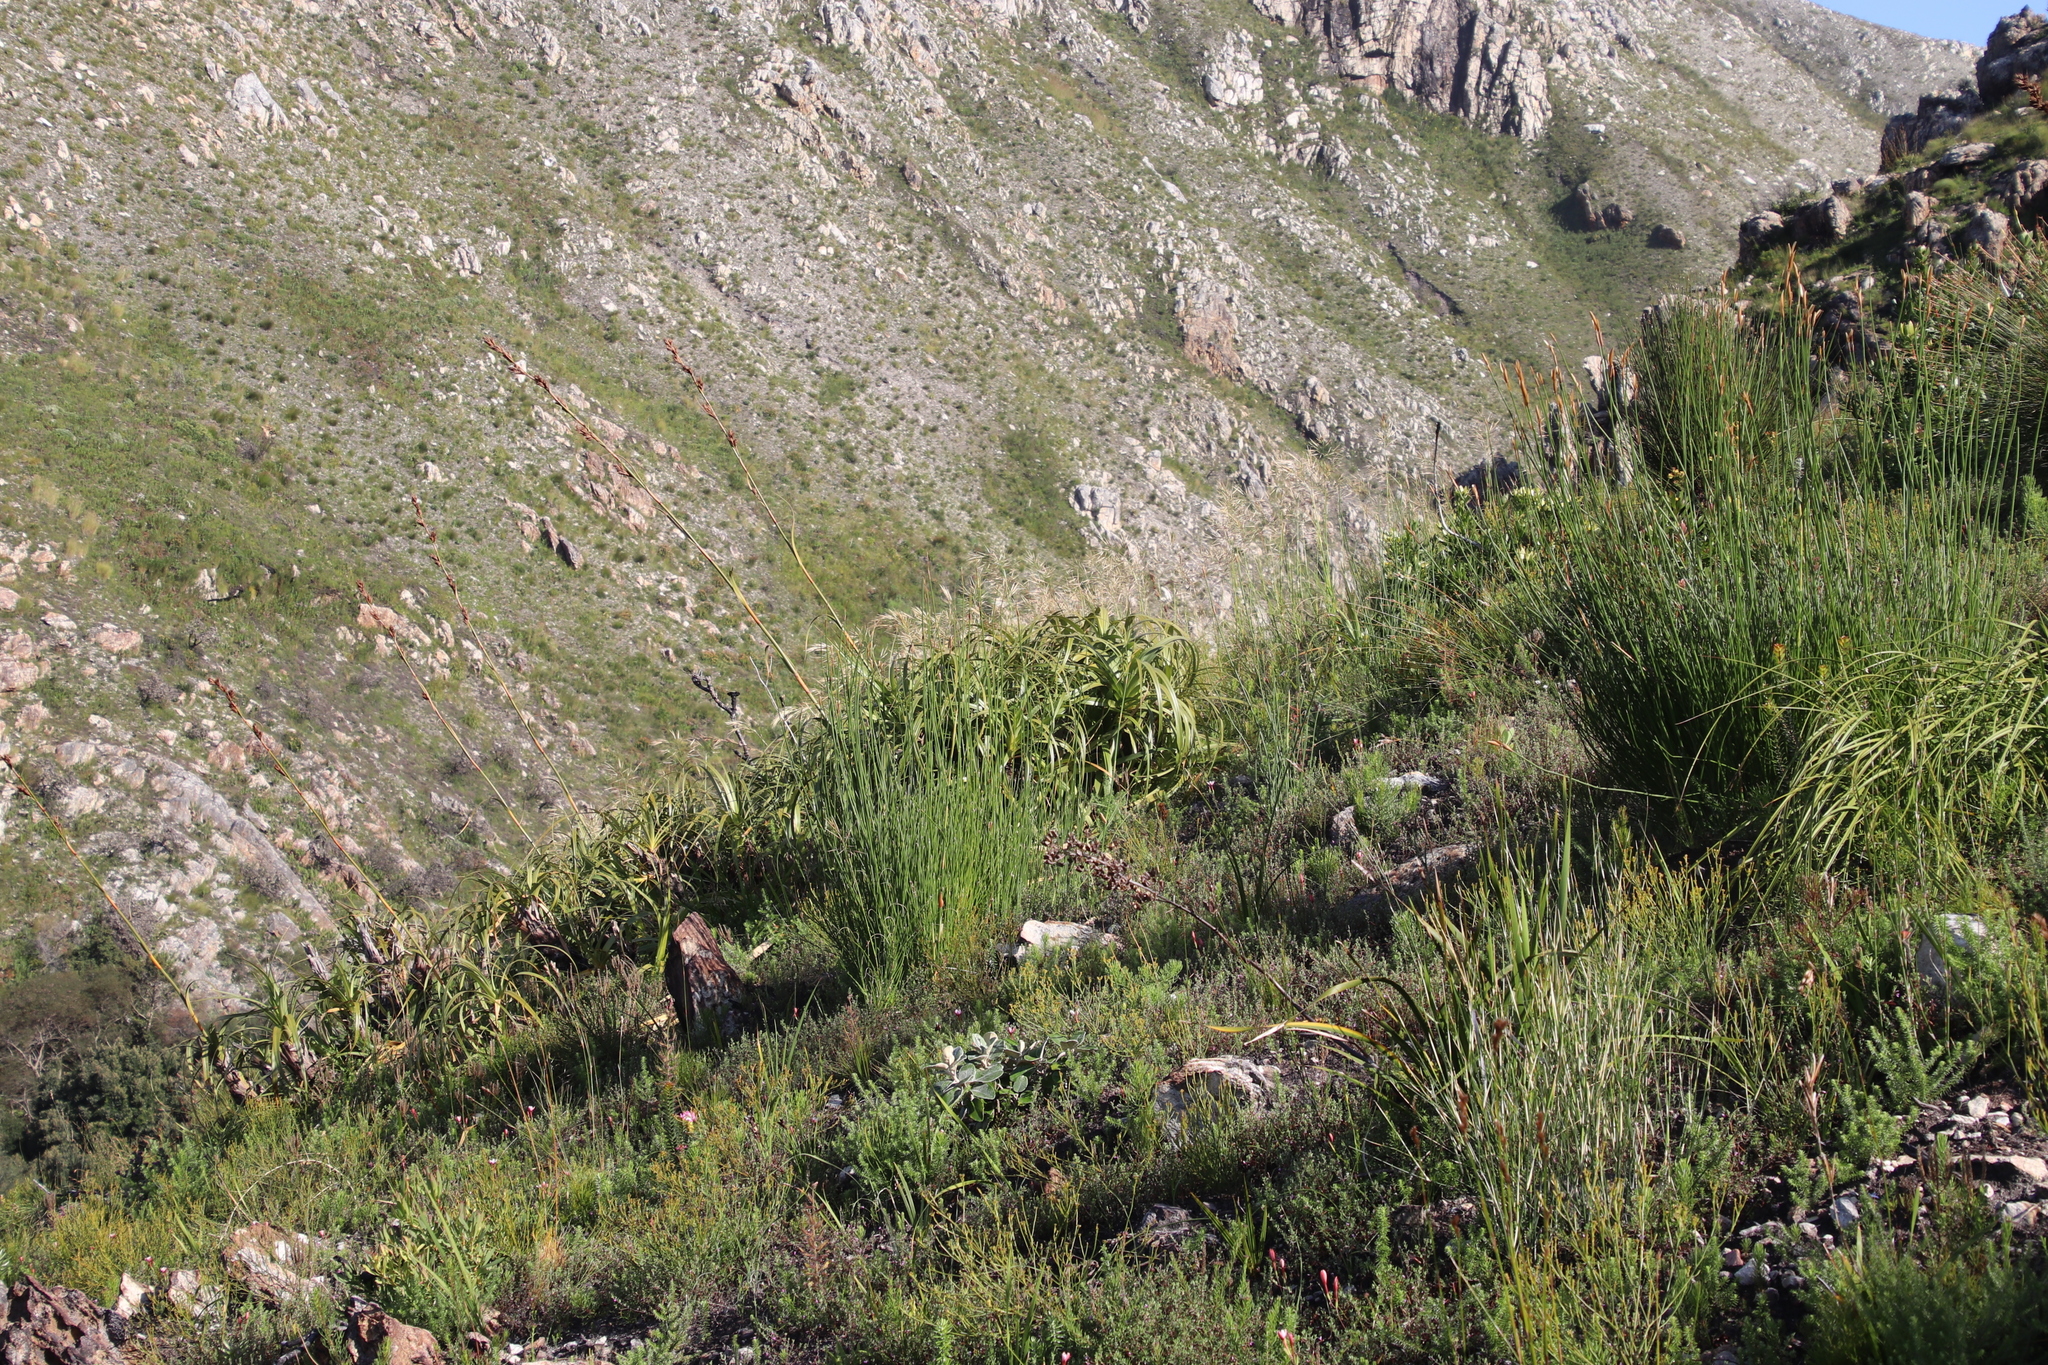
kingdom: Plantae
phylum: Tracheophyta
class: Liliopsida
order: Poales
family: Cyperaceae
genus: Tetraria
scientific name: Tetraria thermalis
